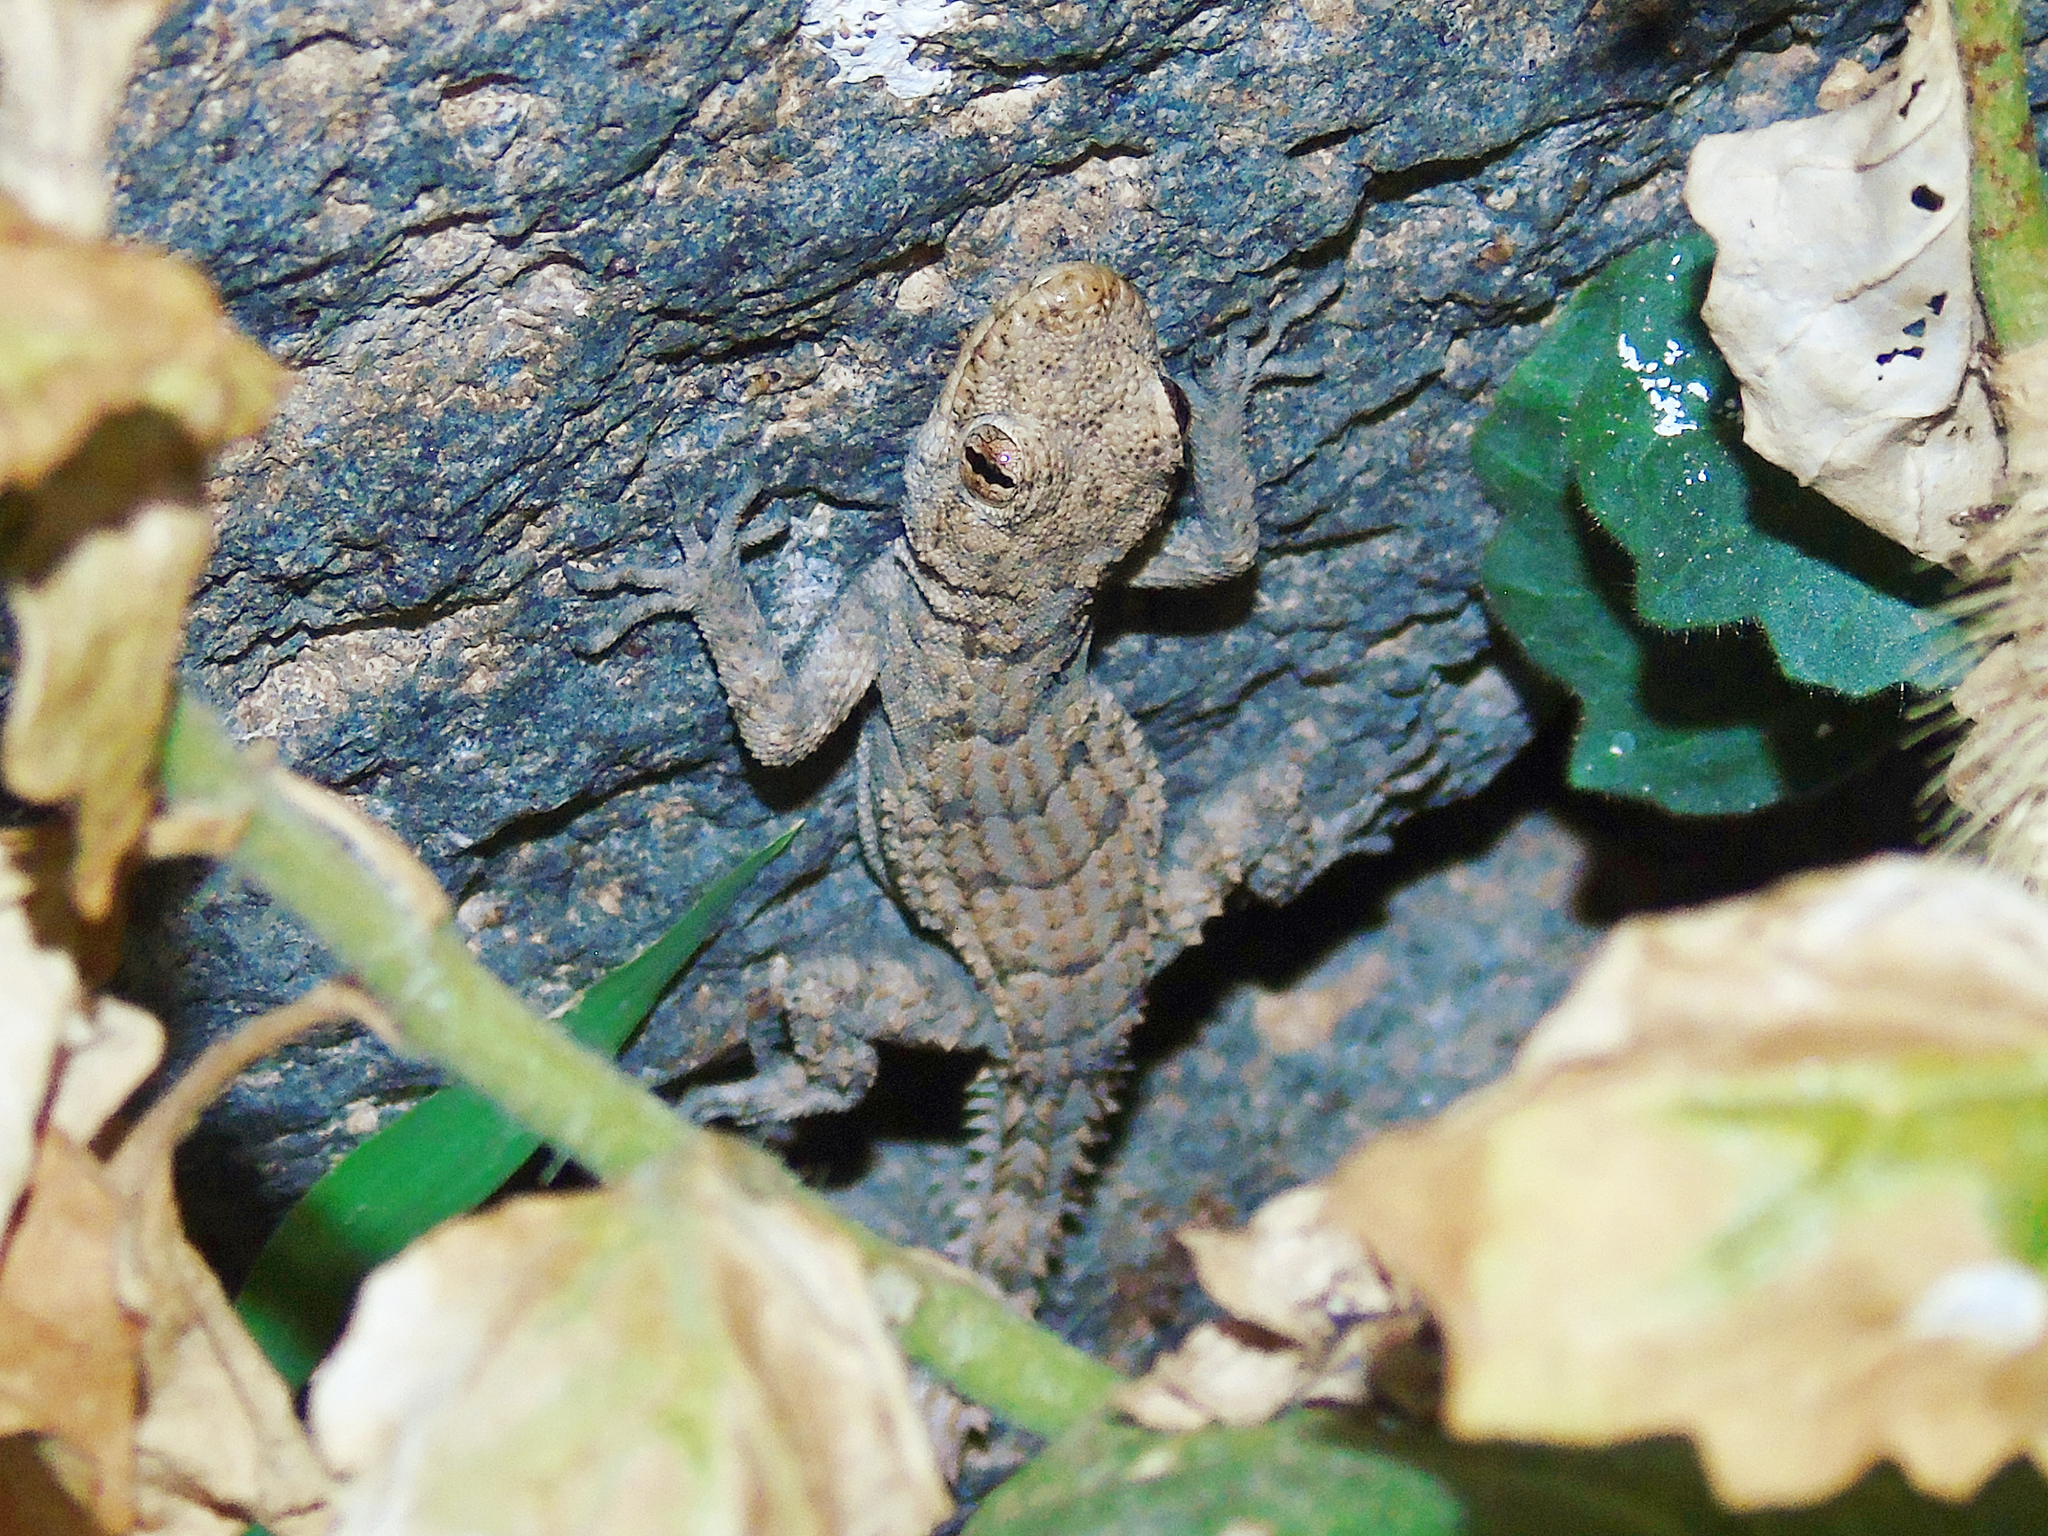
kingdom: Animalia
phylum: Chordata
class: Squamata
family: Gekkonidae
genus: Mediodactylus
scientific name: Mediodactylus heterocercus
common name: Asia minor thin-toed gecko
